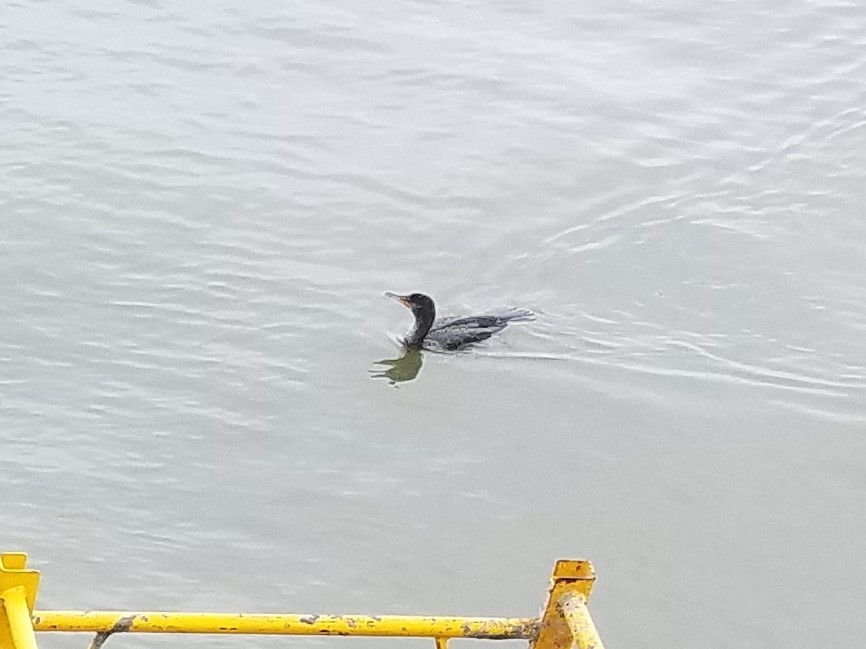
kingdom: Animalia
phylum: Chordata
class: Aves
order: Suliformes
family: Phalacrocoracidae
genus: Phalacrocorax
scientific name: Phalacrocorax auritus
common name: Double-crested cormorant
